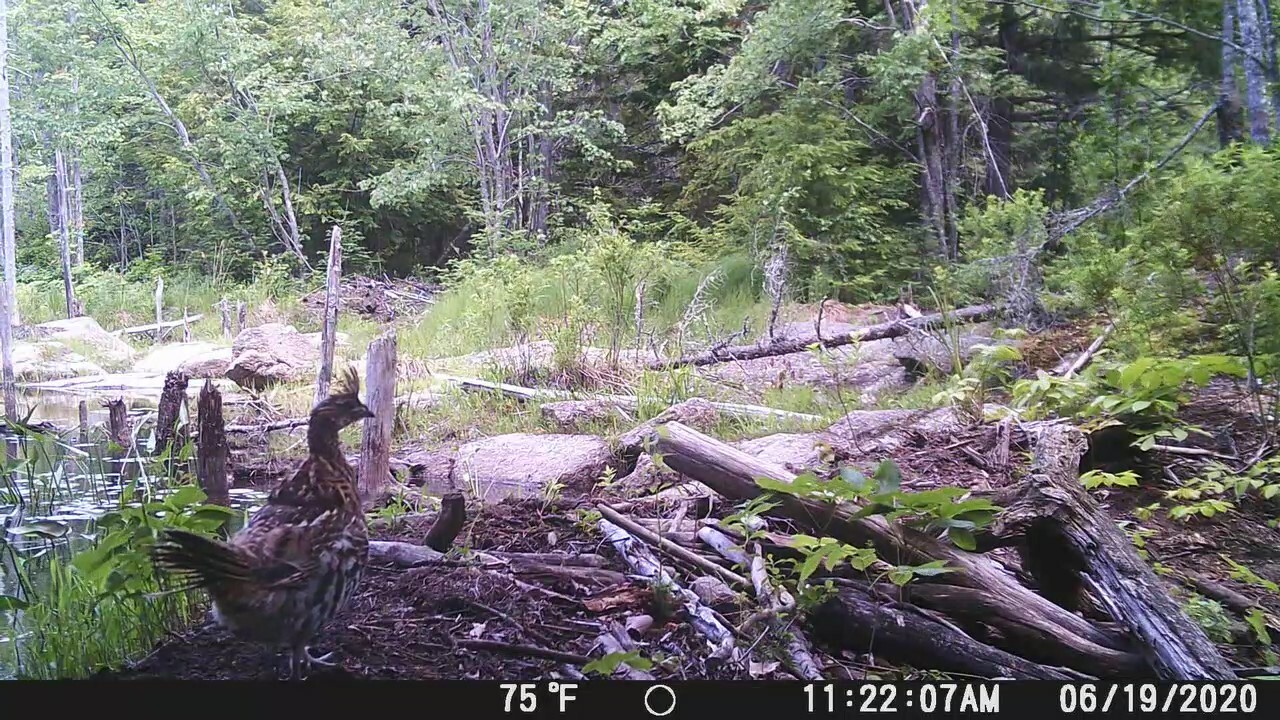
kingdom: Animalia
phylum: Chordata
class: Aves
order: Galliformes
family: Phasianidae
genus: Bonasa
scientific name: Bonasa umbellus
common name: Ruffed grouse
